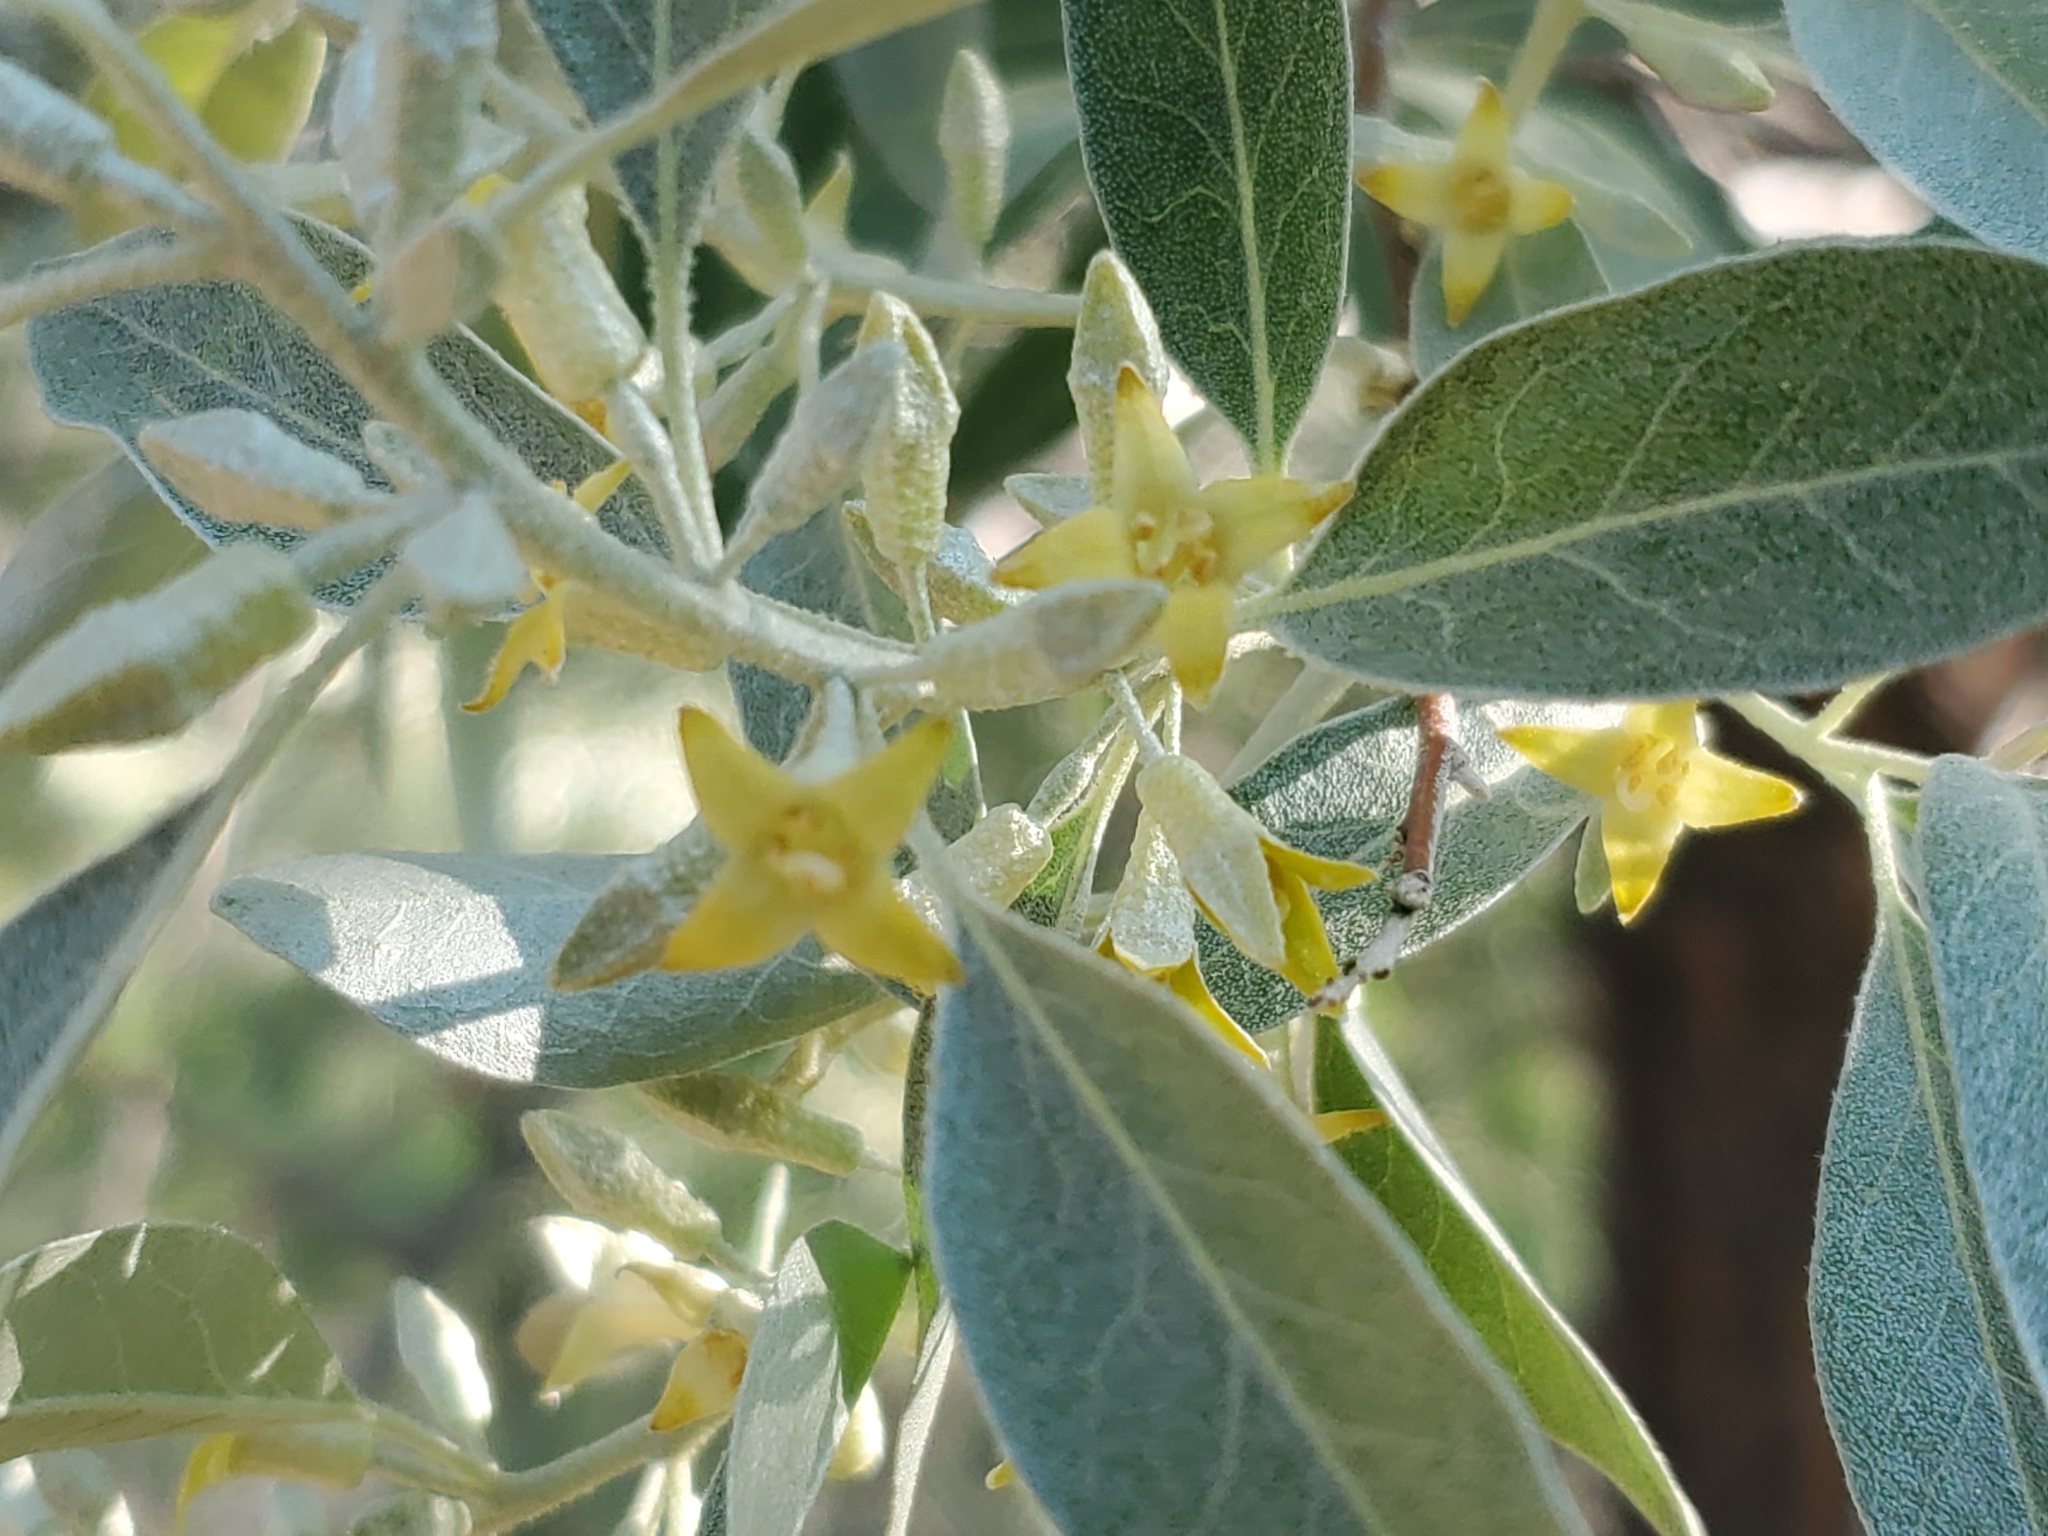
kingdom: Plantae
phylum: Tracheophyta
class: Magnoliopsida
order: Rosales
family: Elaeagnaceae
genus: Elaeagnus
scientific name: Elaeagnus angustifolia
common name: Russian olive
